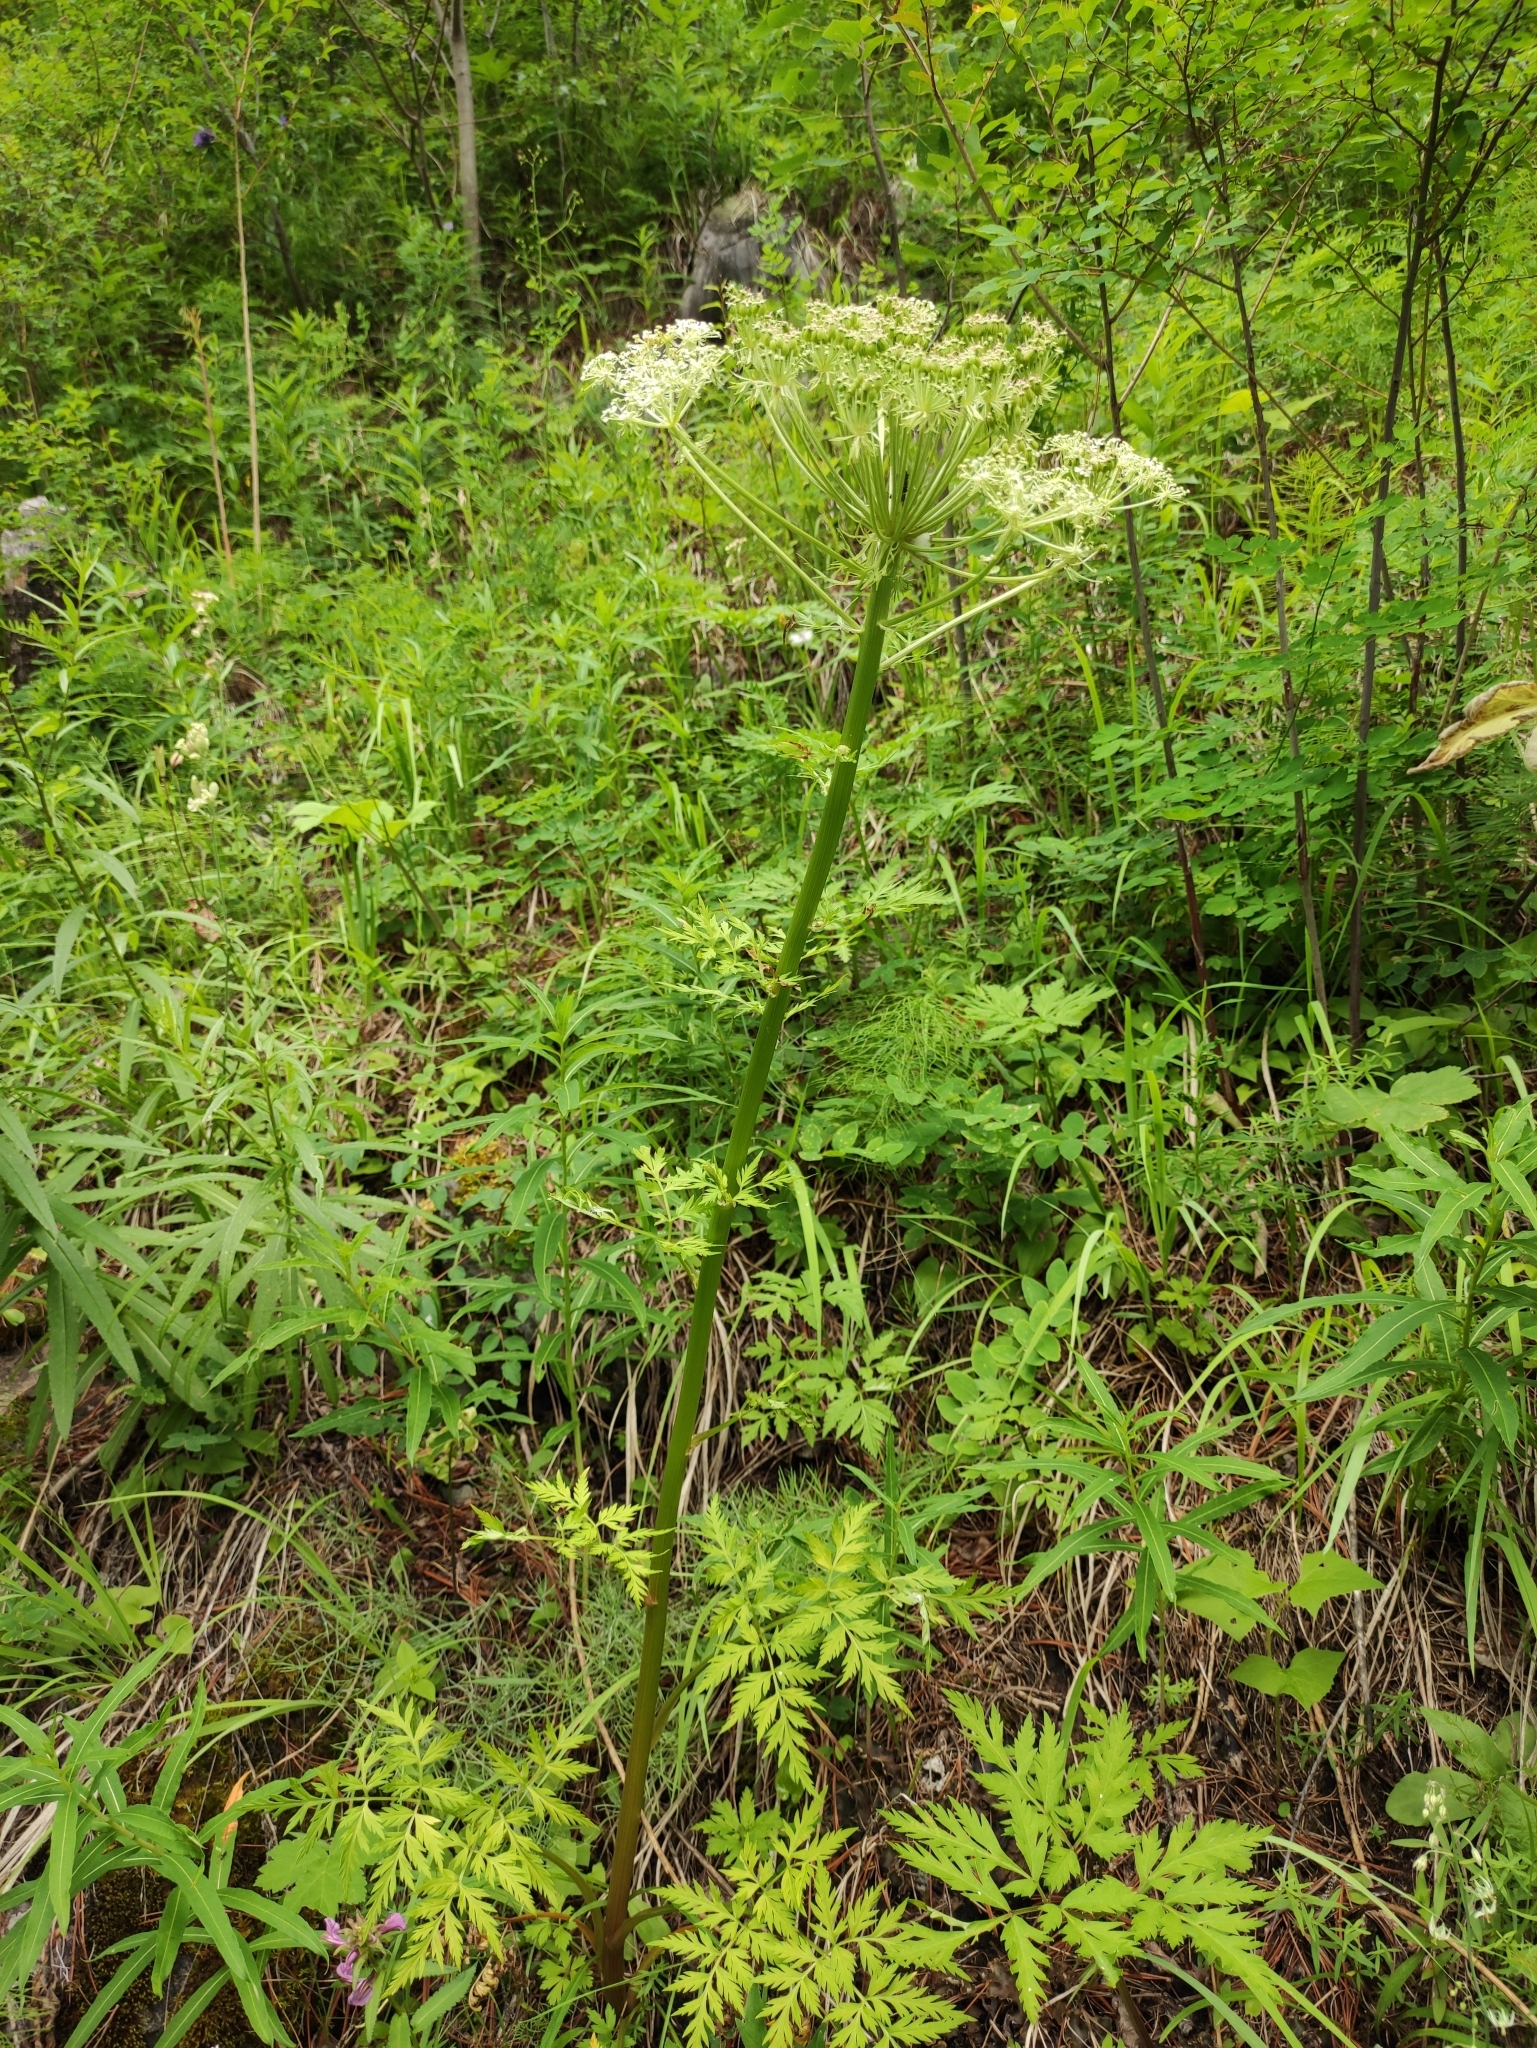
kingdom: Plantae
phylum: Tracheophyta
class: Magnoliopsida
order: Apiales
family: Apiaceae
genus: Pleurospermum
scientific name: Pleurospermum uralense
